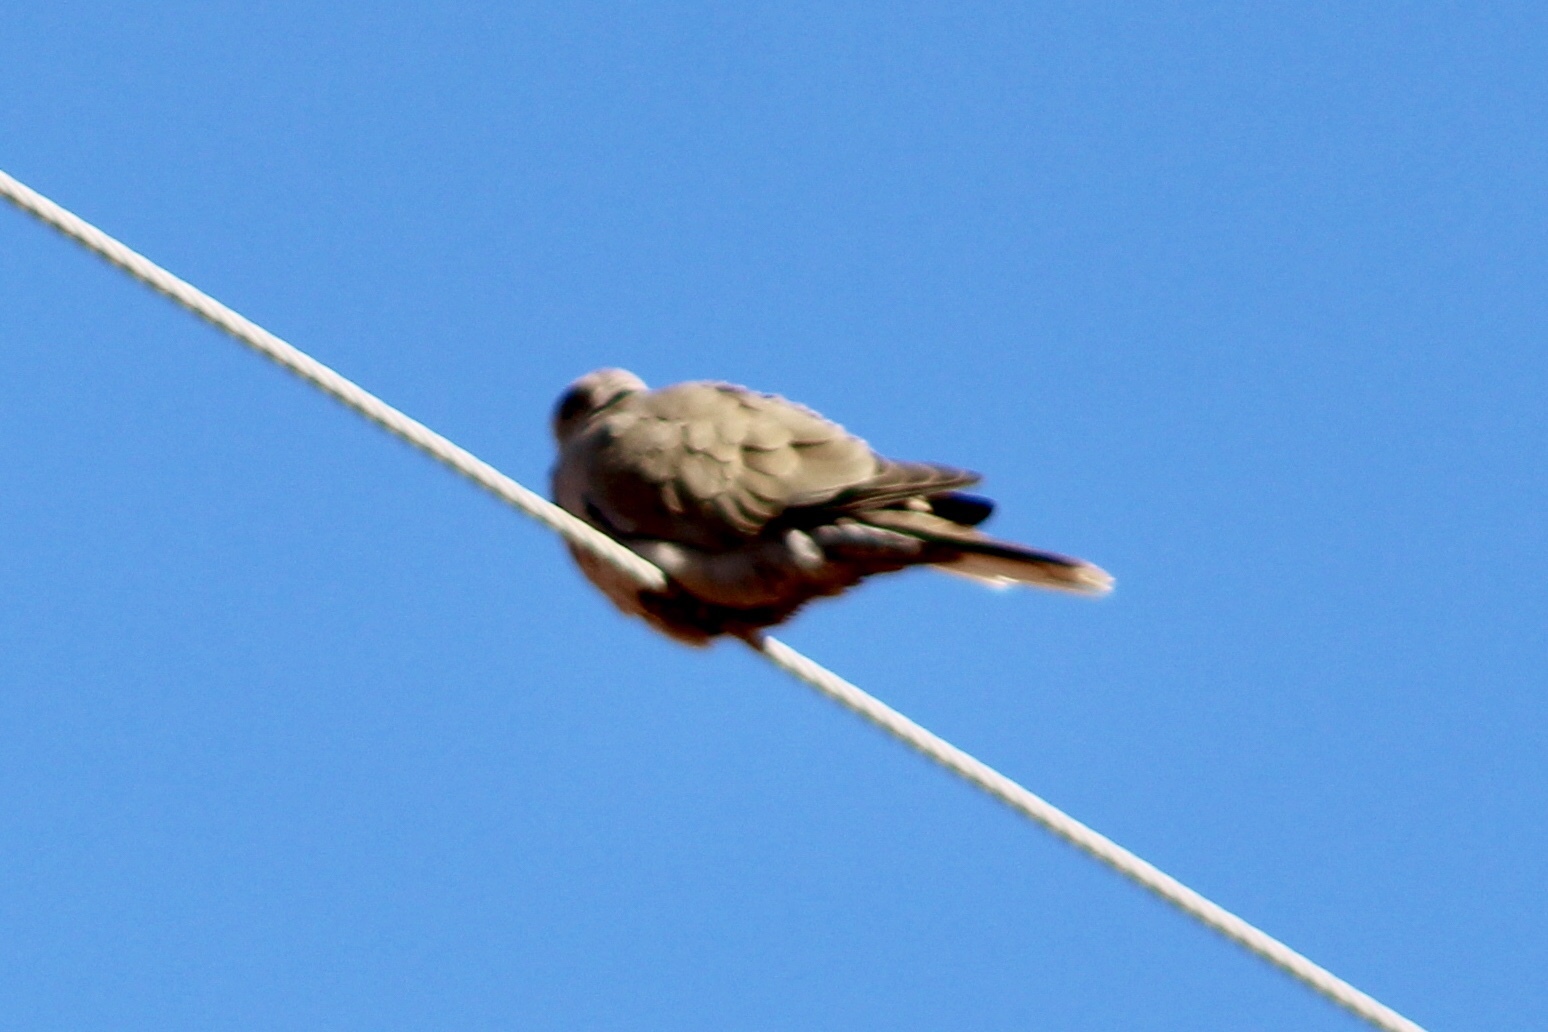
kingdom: Animalia
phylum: Chordata
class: Aves
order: Columbiformes
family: Columbidae
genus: Streptopelia
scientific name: Streptopelia decaocto
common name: Eurasian collared dove
